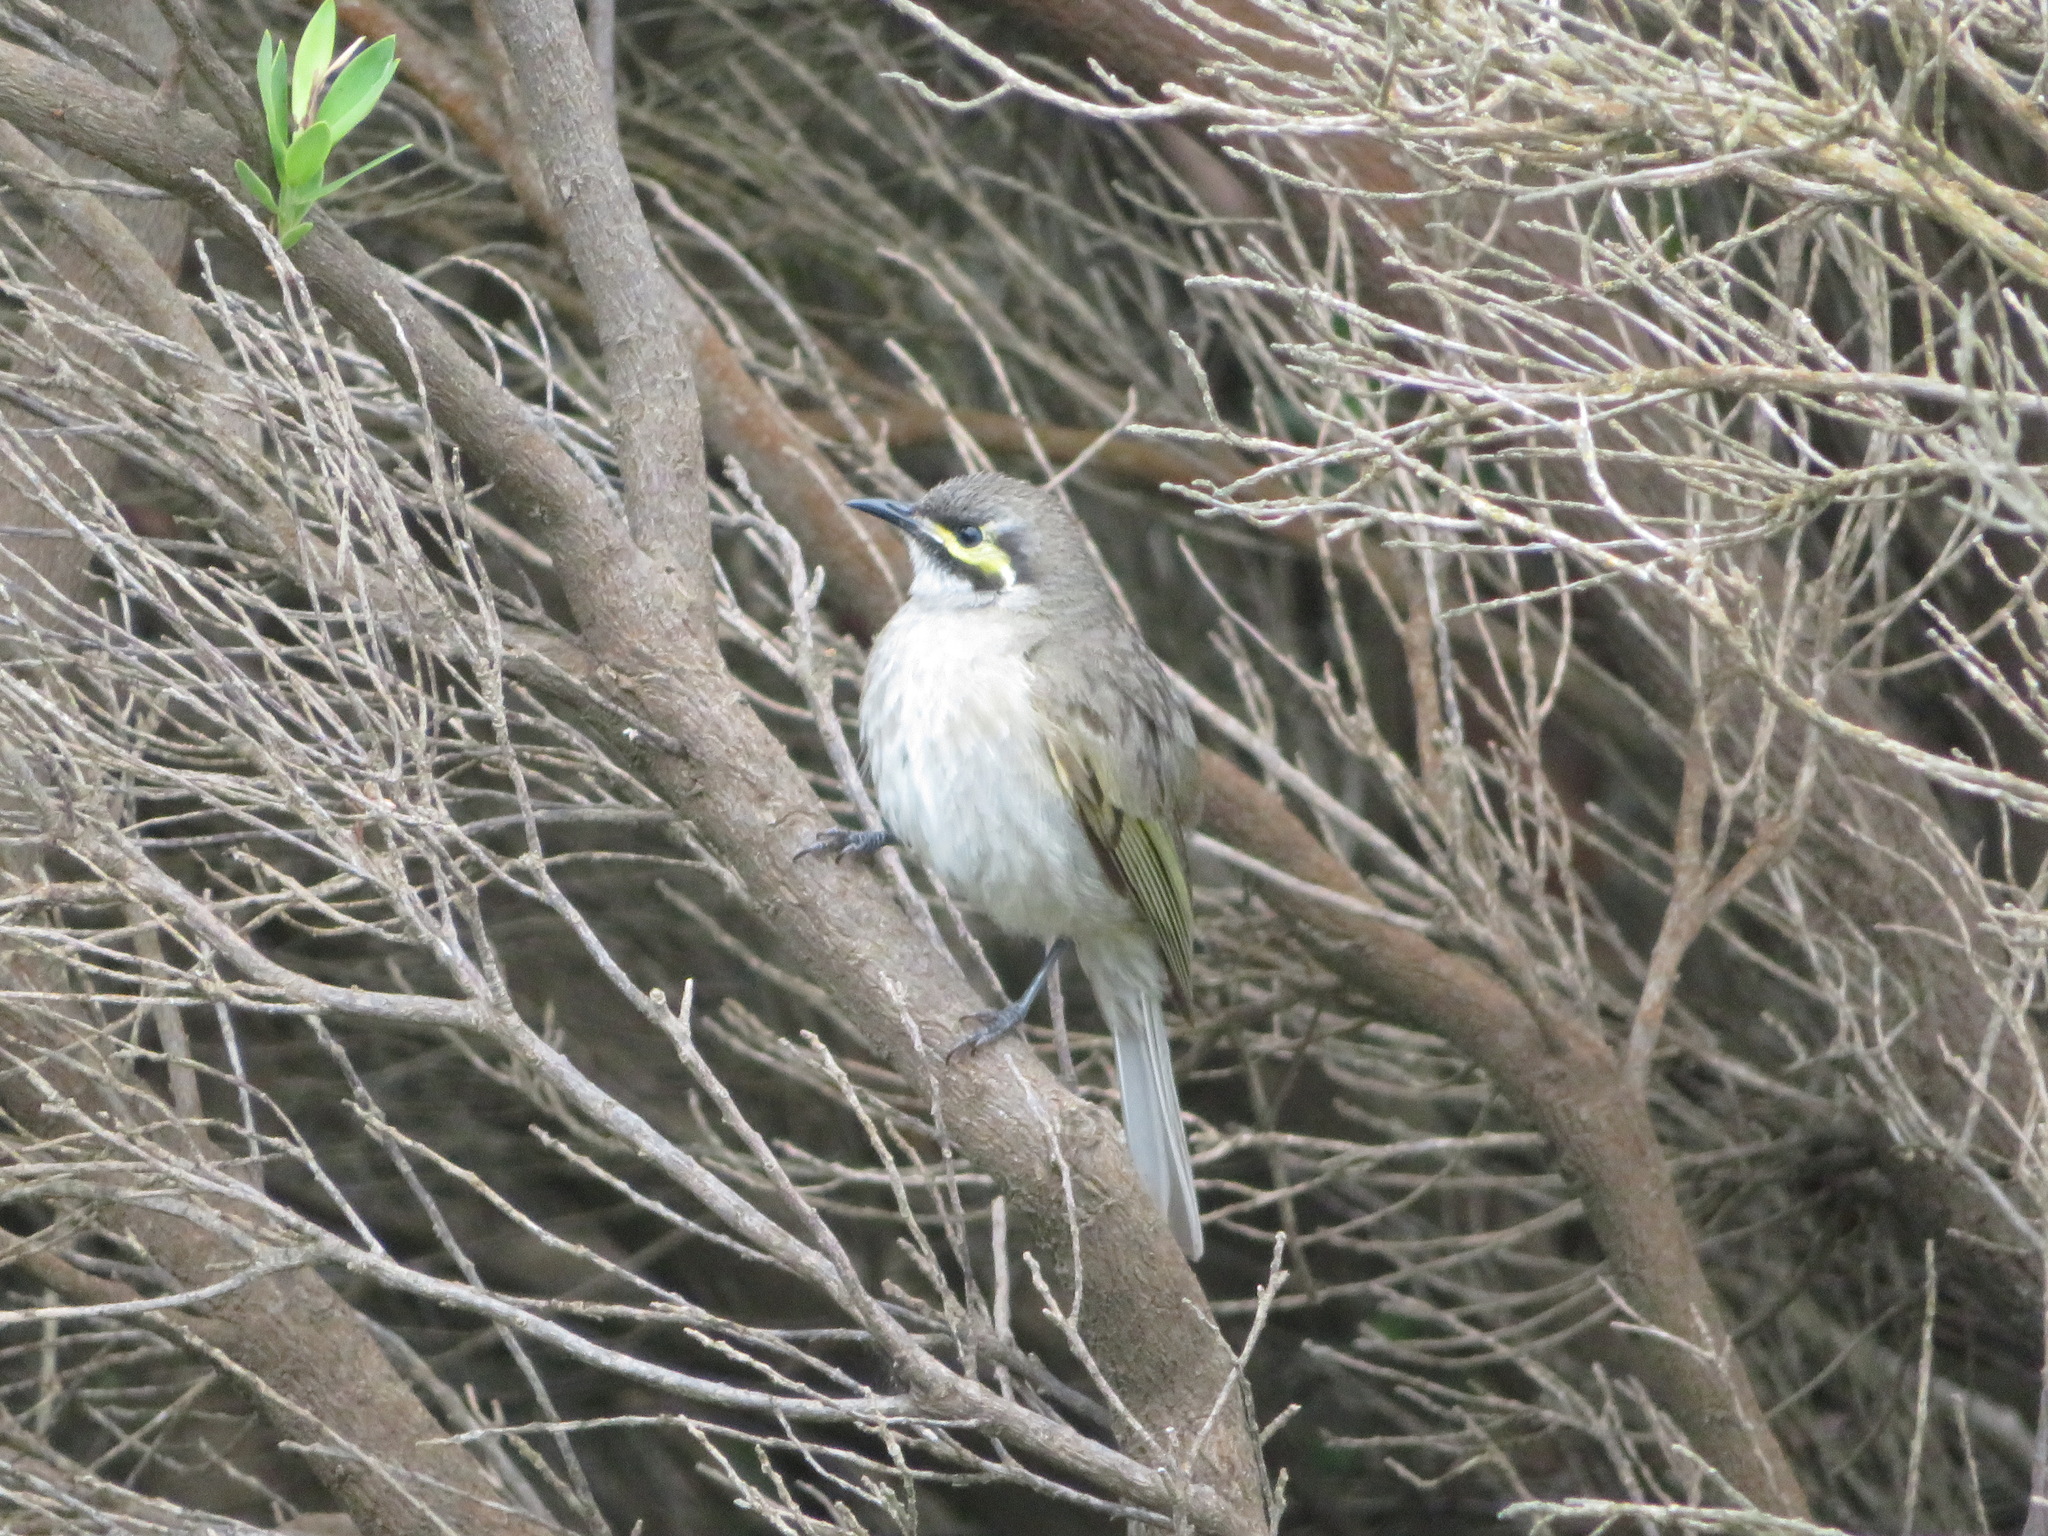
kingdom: Animalia
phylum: Chordata
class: Aves
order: Passeriformes
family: Meliphagidae
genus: Caligavis
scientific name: Caligavis chrysops
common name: Yellow-faced honeyeater
